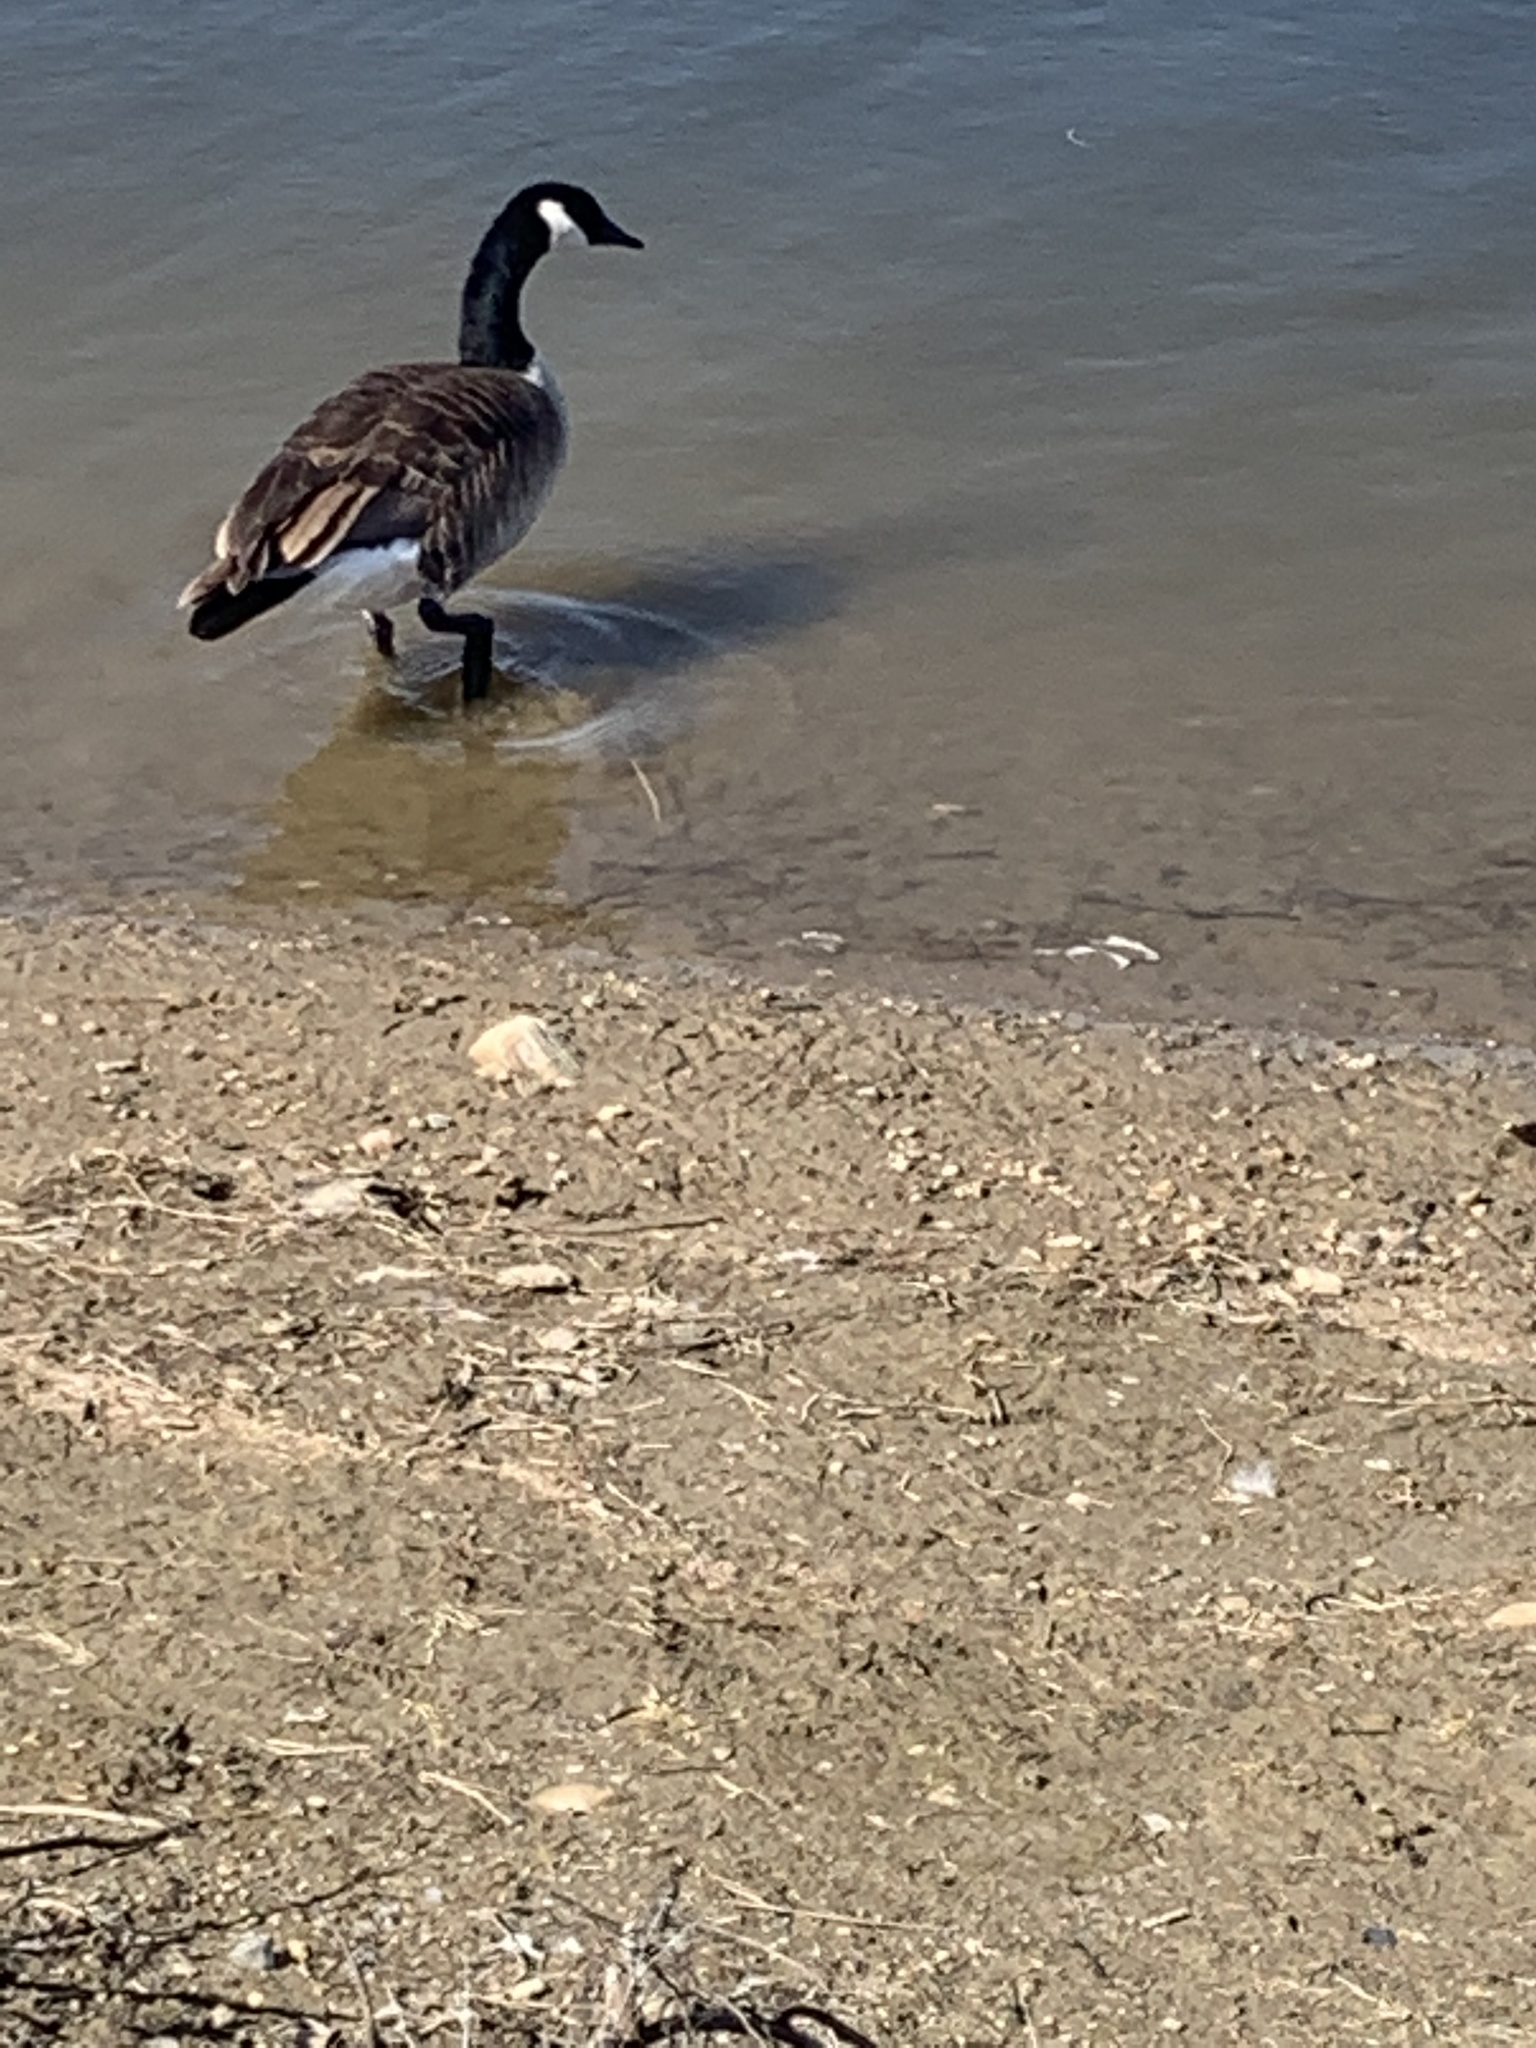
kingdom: Animalia
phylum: Chordata
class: Aves
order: Anseriformes
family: Anatidae
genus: Branta
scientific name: Branta canadensis
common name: Canada goose
